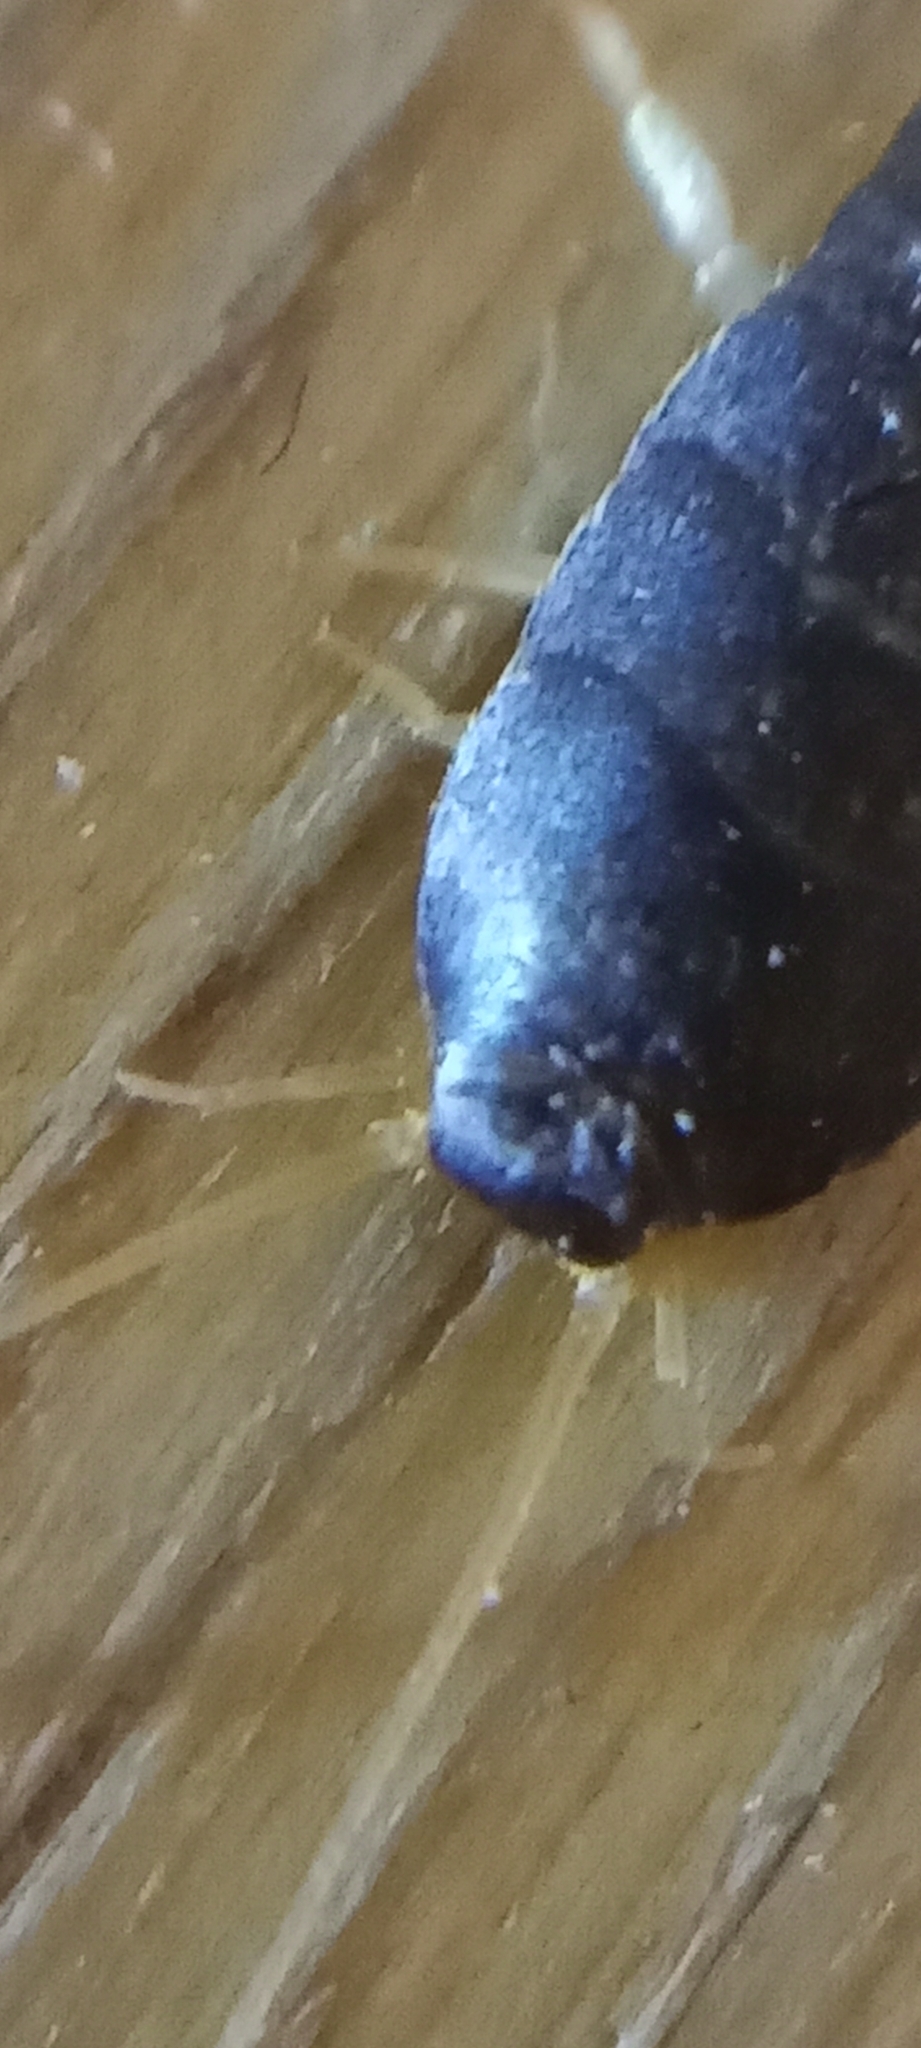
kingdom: Animalia
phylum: Arthropoda
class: Insecta
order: Zygentoma
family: Lepismatidae
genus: Lepisma
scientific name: Lepisma saccharinum
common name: Silverfish
